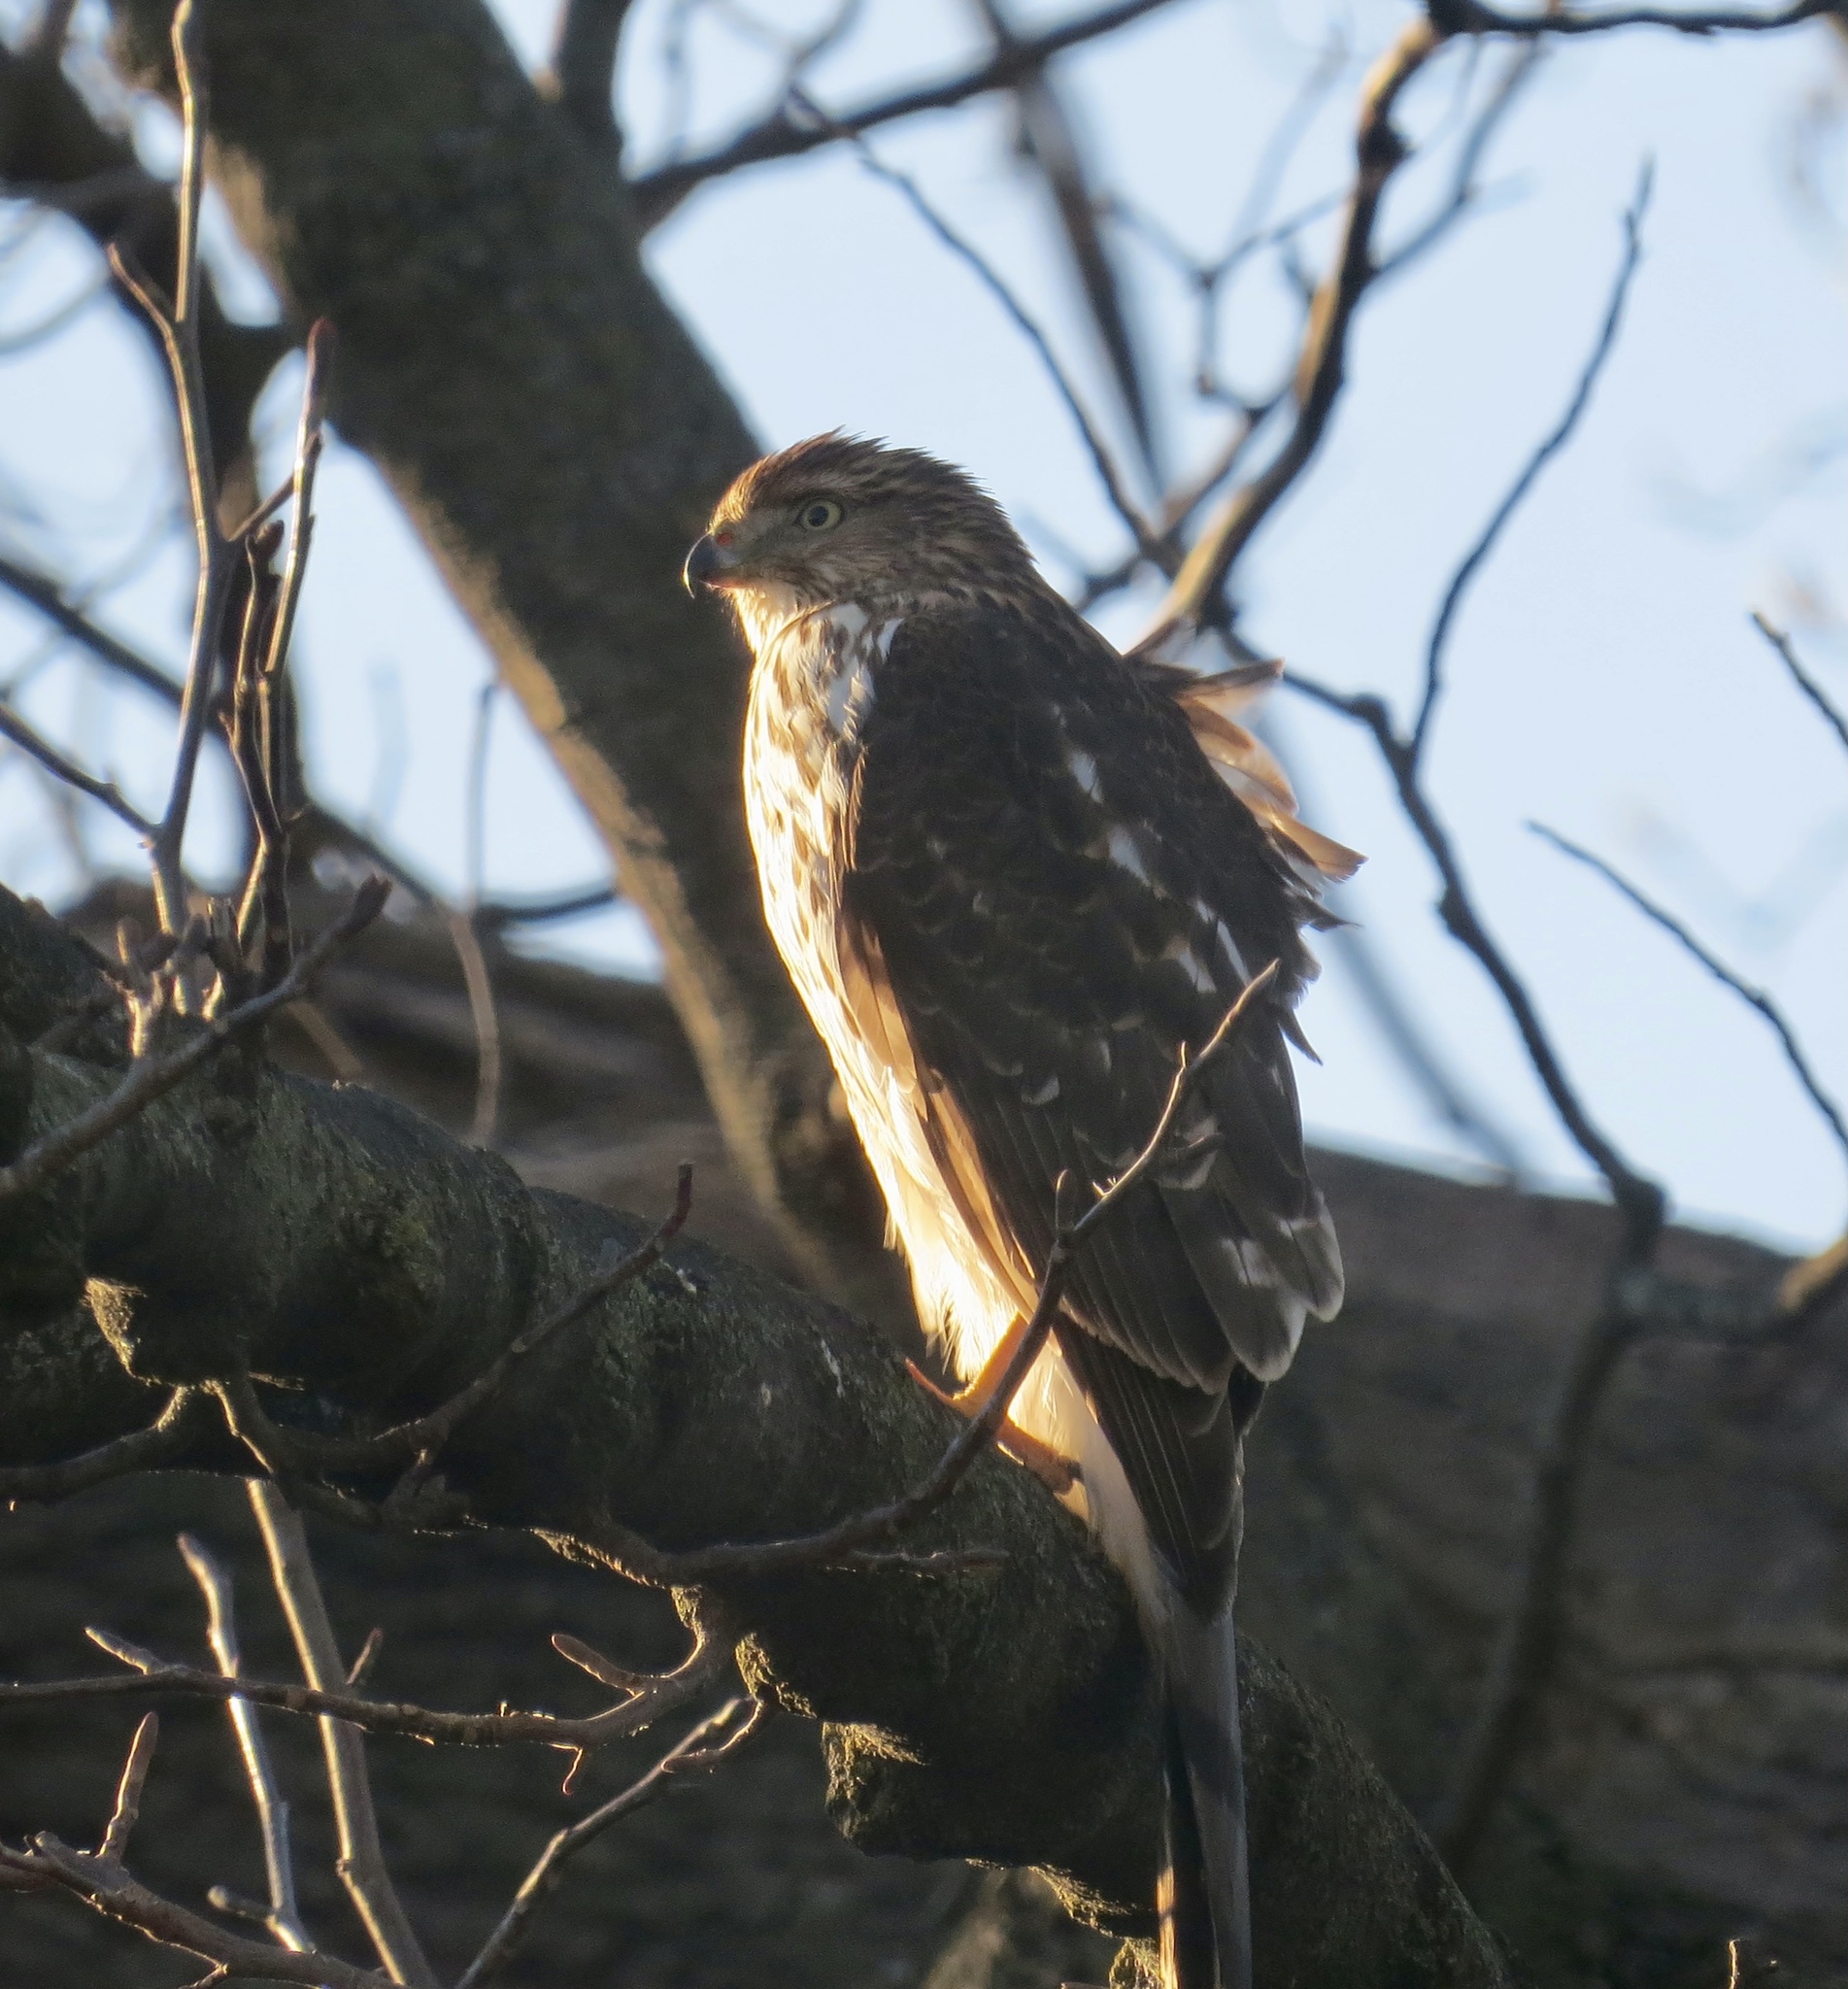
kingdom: Animalia
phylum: Chordata
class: Aves
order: Accipitriformes
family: Accipitridae
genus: Accipiter
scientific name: Accipiter cooperii
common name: Cooper's hawk
